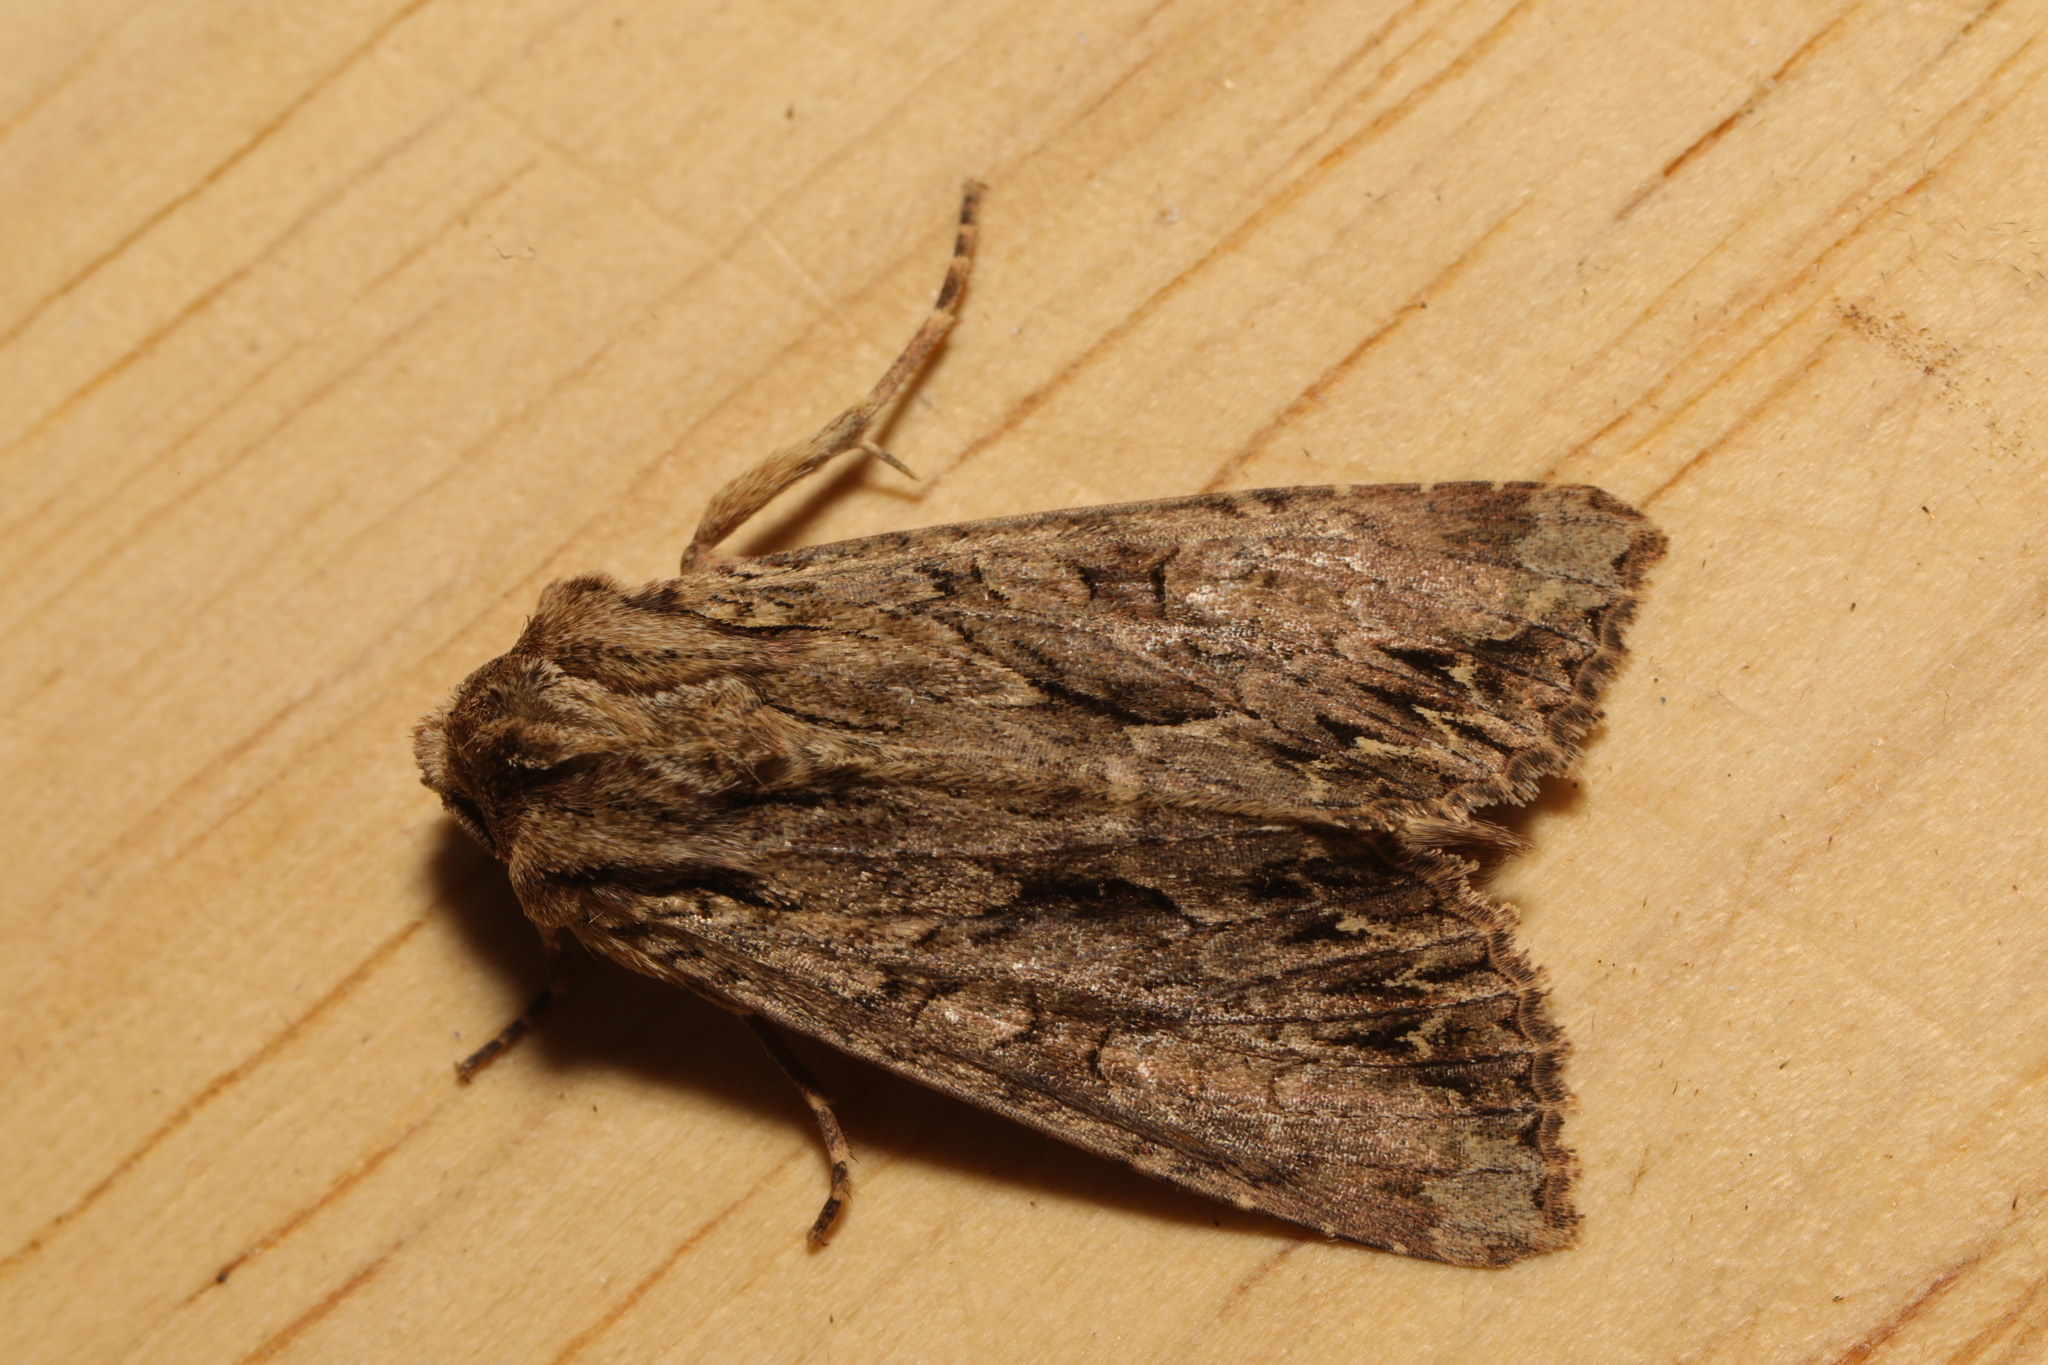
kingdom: Animalia
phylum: Arthropoda
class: Insecta
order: Lepidoptera
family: Noctuidae
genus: Apamea
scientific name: Apamea monoglypha
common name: Dark arches
